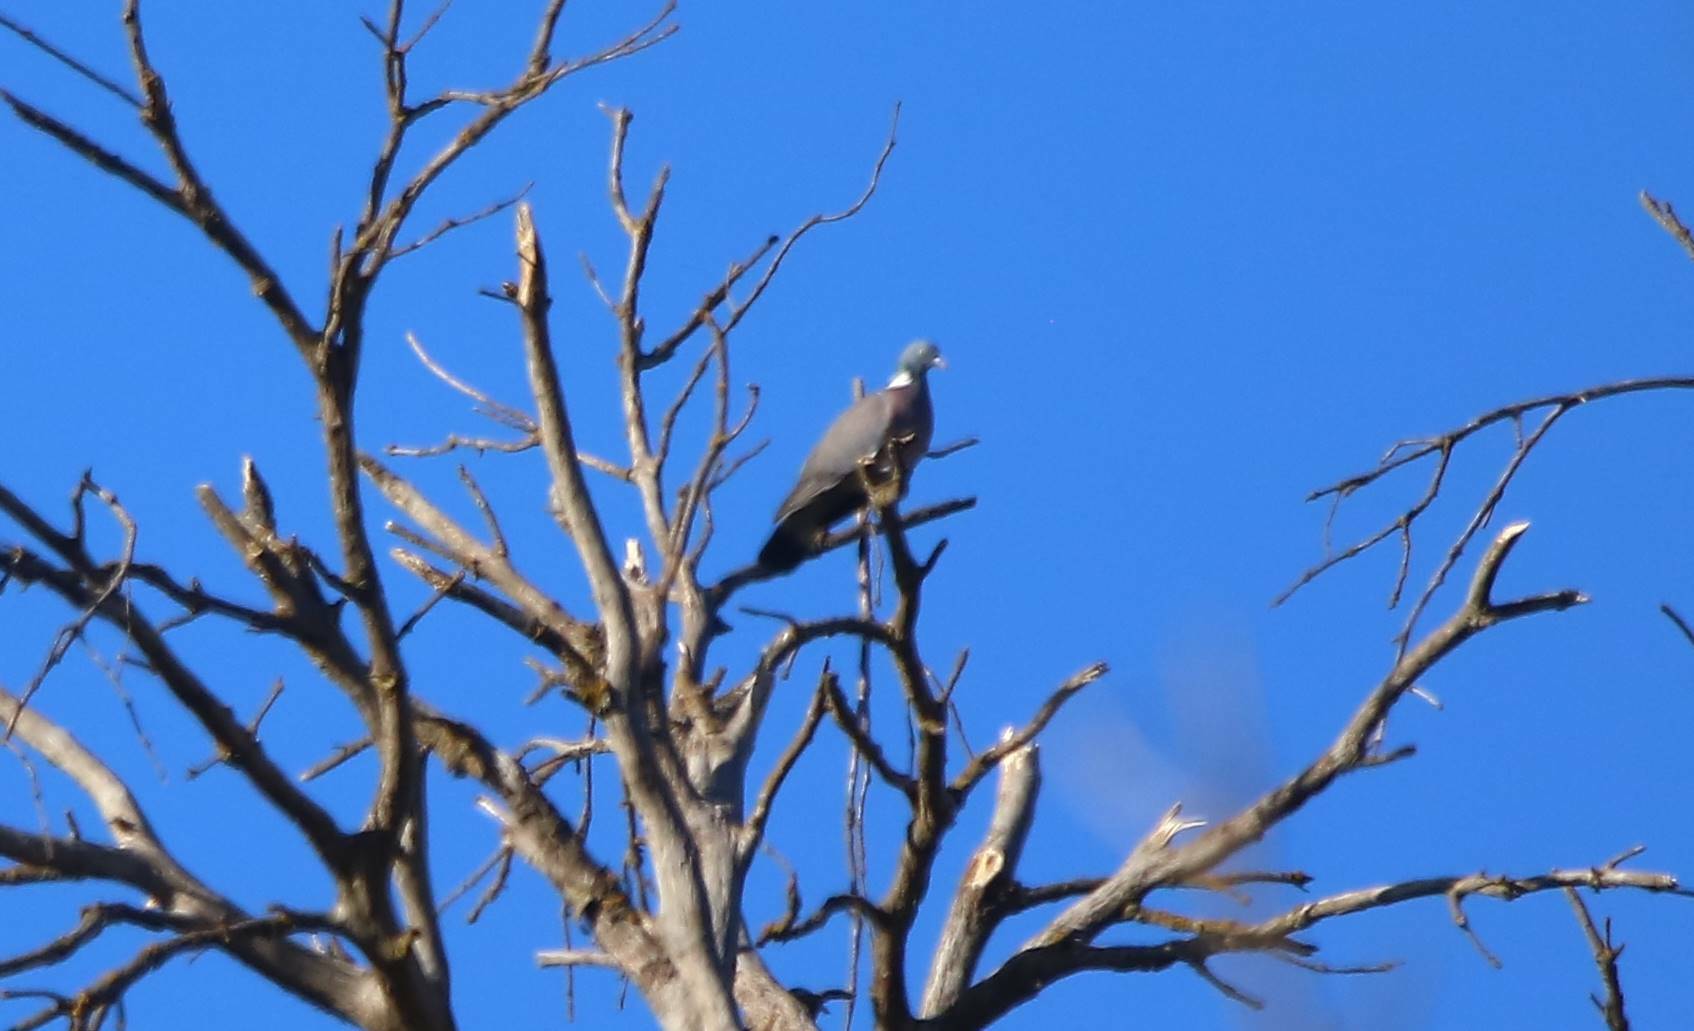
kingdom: Animalia
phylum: Chordata
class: Aves
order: Columbiformes
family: Columbidae
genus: Columba
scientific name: Columba palumbus
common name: Common wood pigeon
